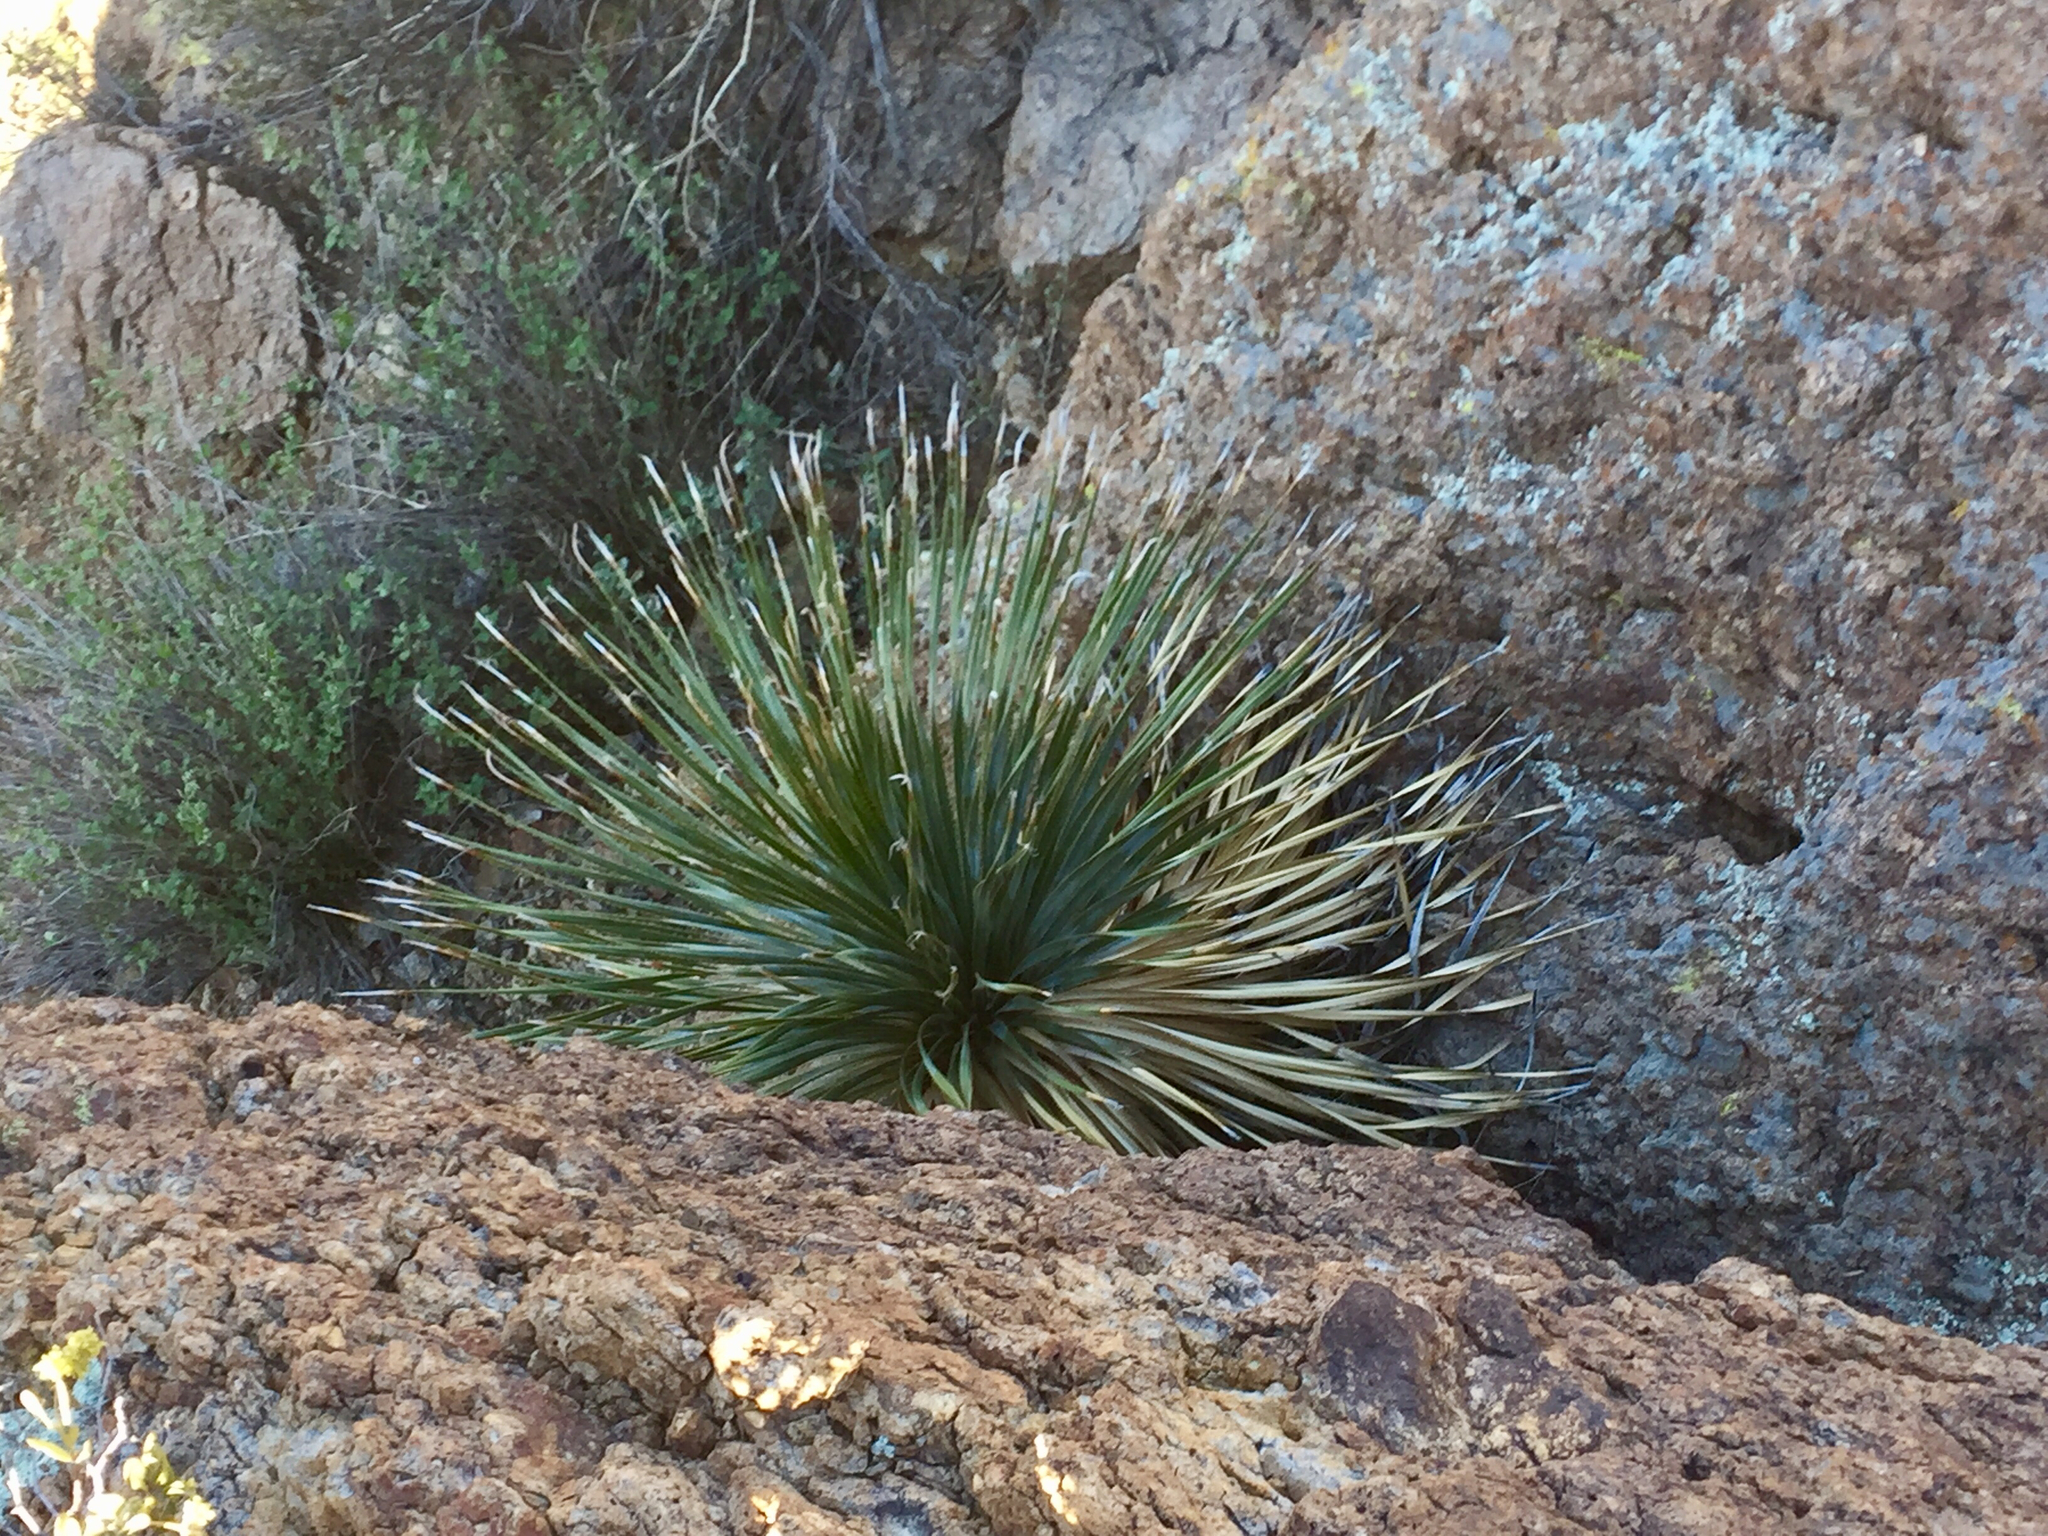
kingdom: Plantae
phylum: Tracheophyta
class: Liliopsida
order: Asparagales
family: Asparagaceae
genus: Dasylirion
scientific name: Dasylirion wheeleri
